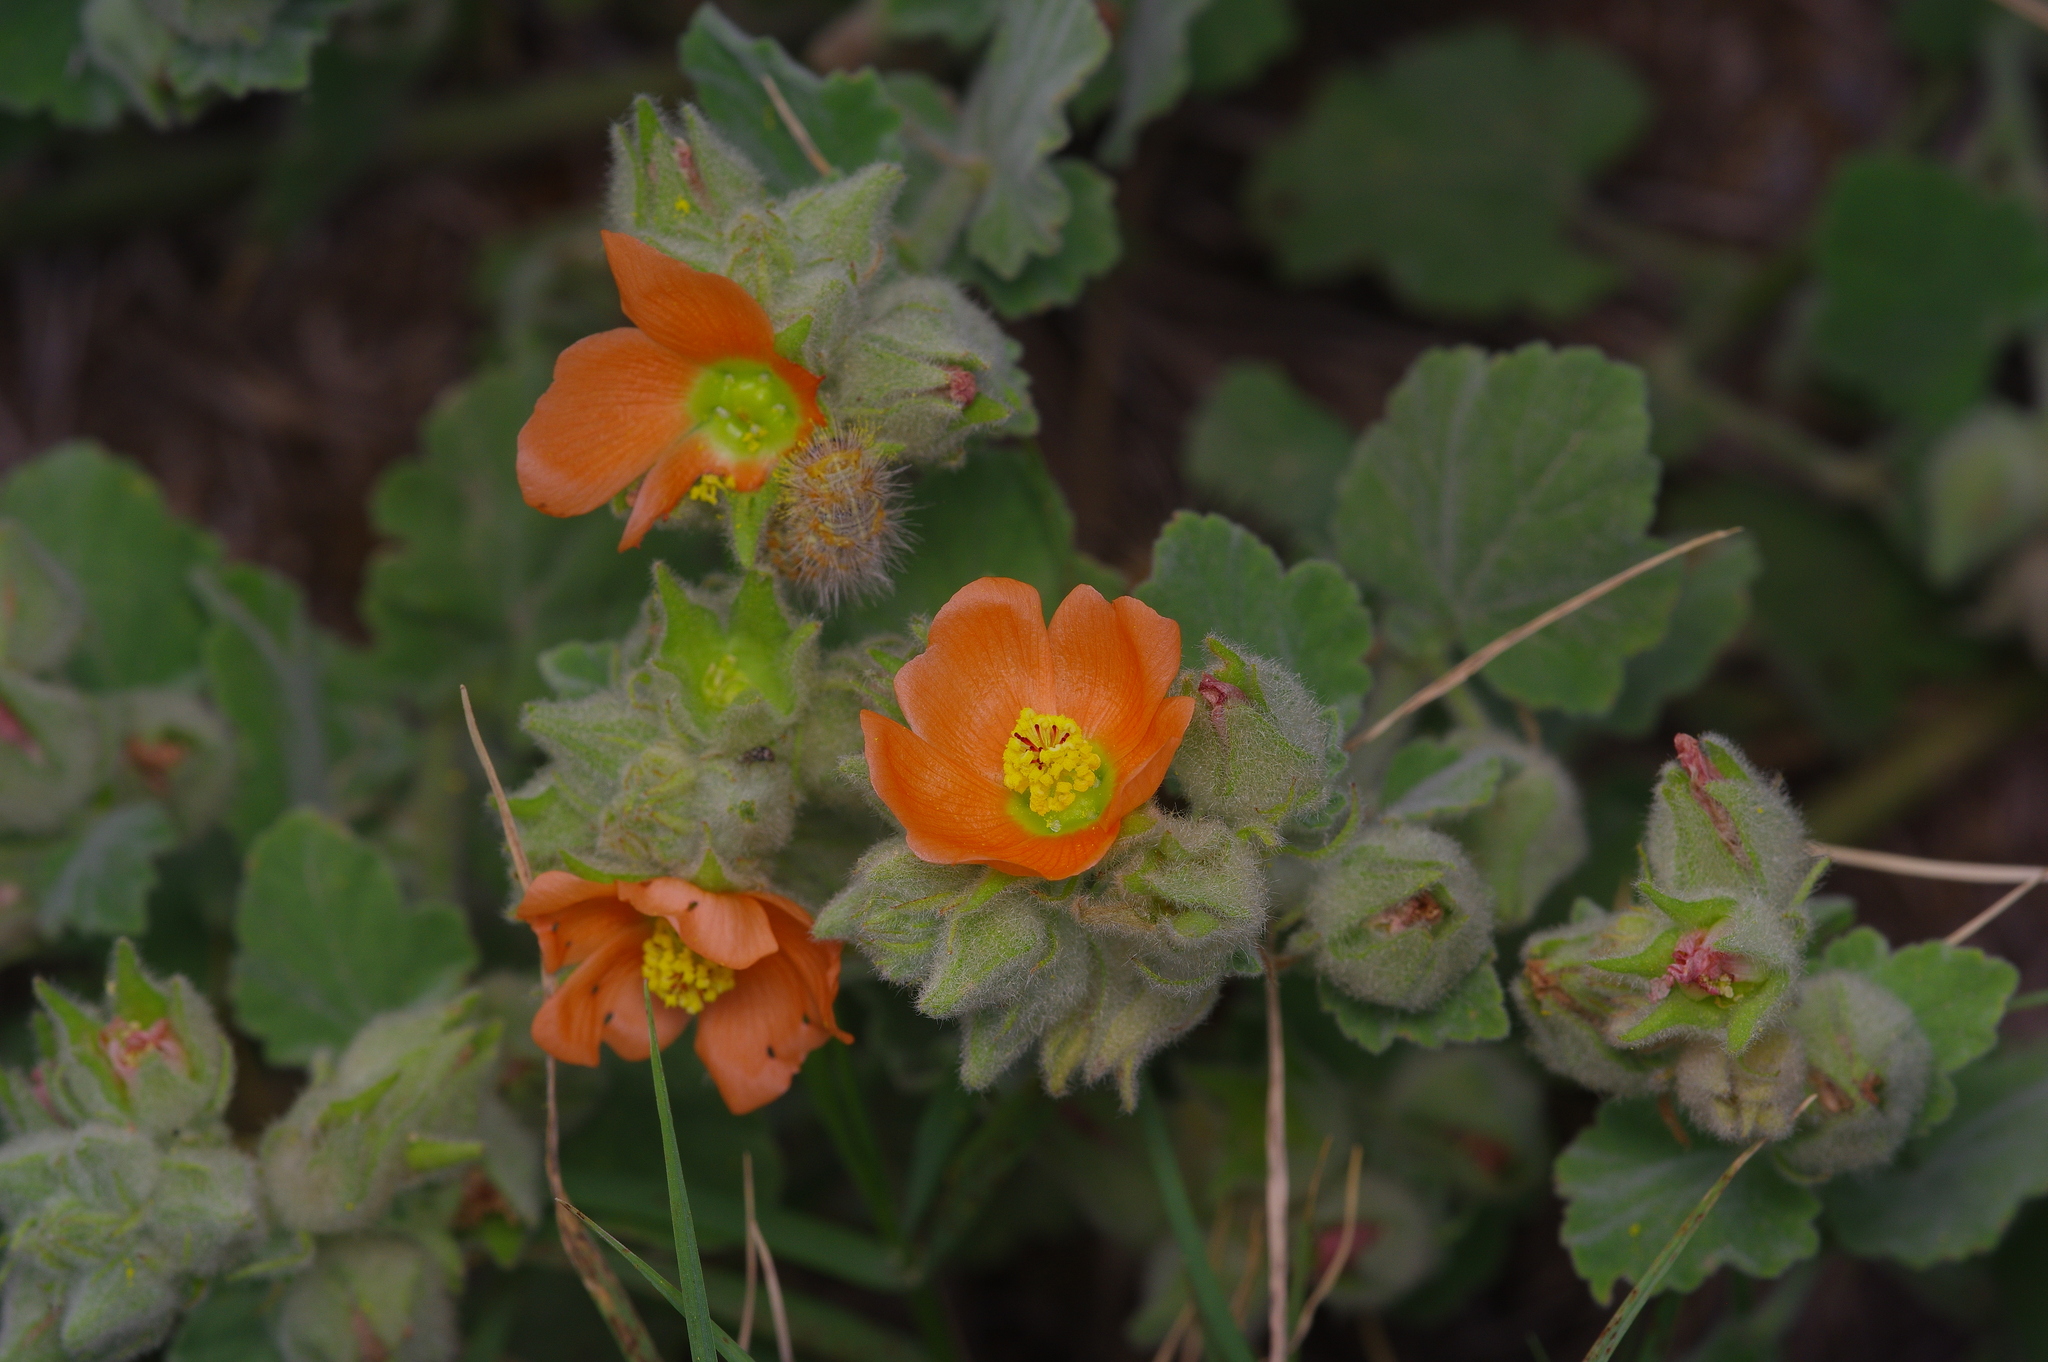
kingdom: Plantae
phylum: Tracheophyta
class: Magnoliopsida
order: Malvales
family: Malvaceae
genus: Sphaeralcea
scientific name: Sphaeralcea lindheimeri
